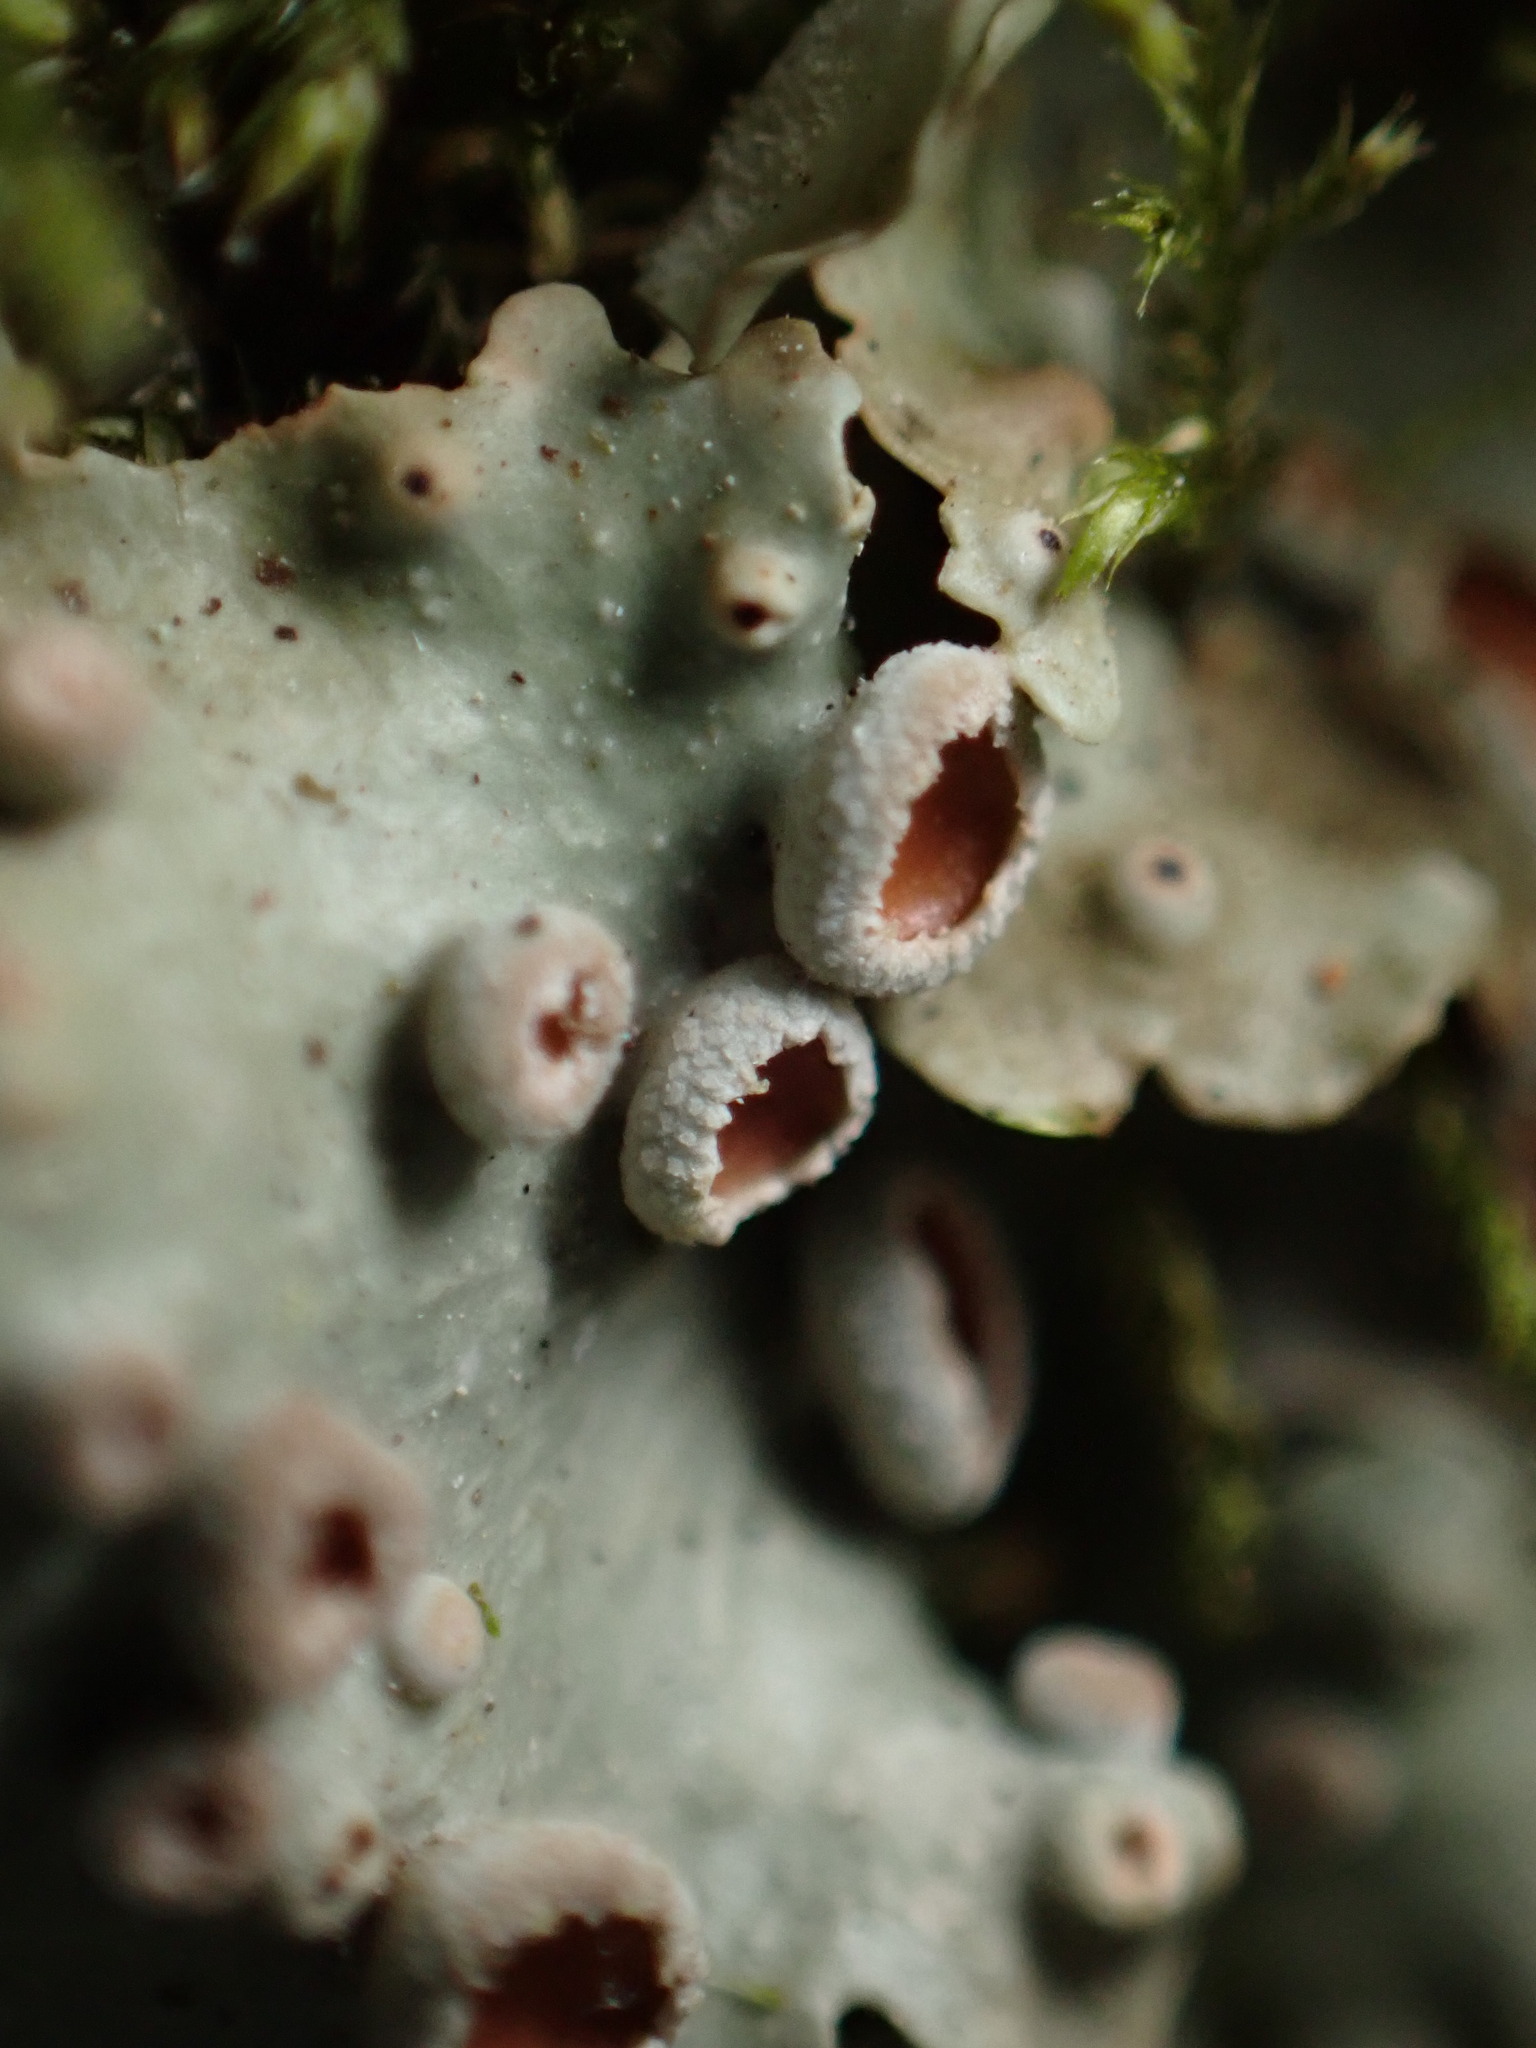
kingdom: Fungi
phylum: Ascomycota
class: Lecanoromycetes
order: Peltigerales
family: Lobariaceae
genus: Ricasolia
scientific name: Ricasolia virens
